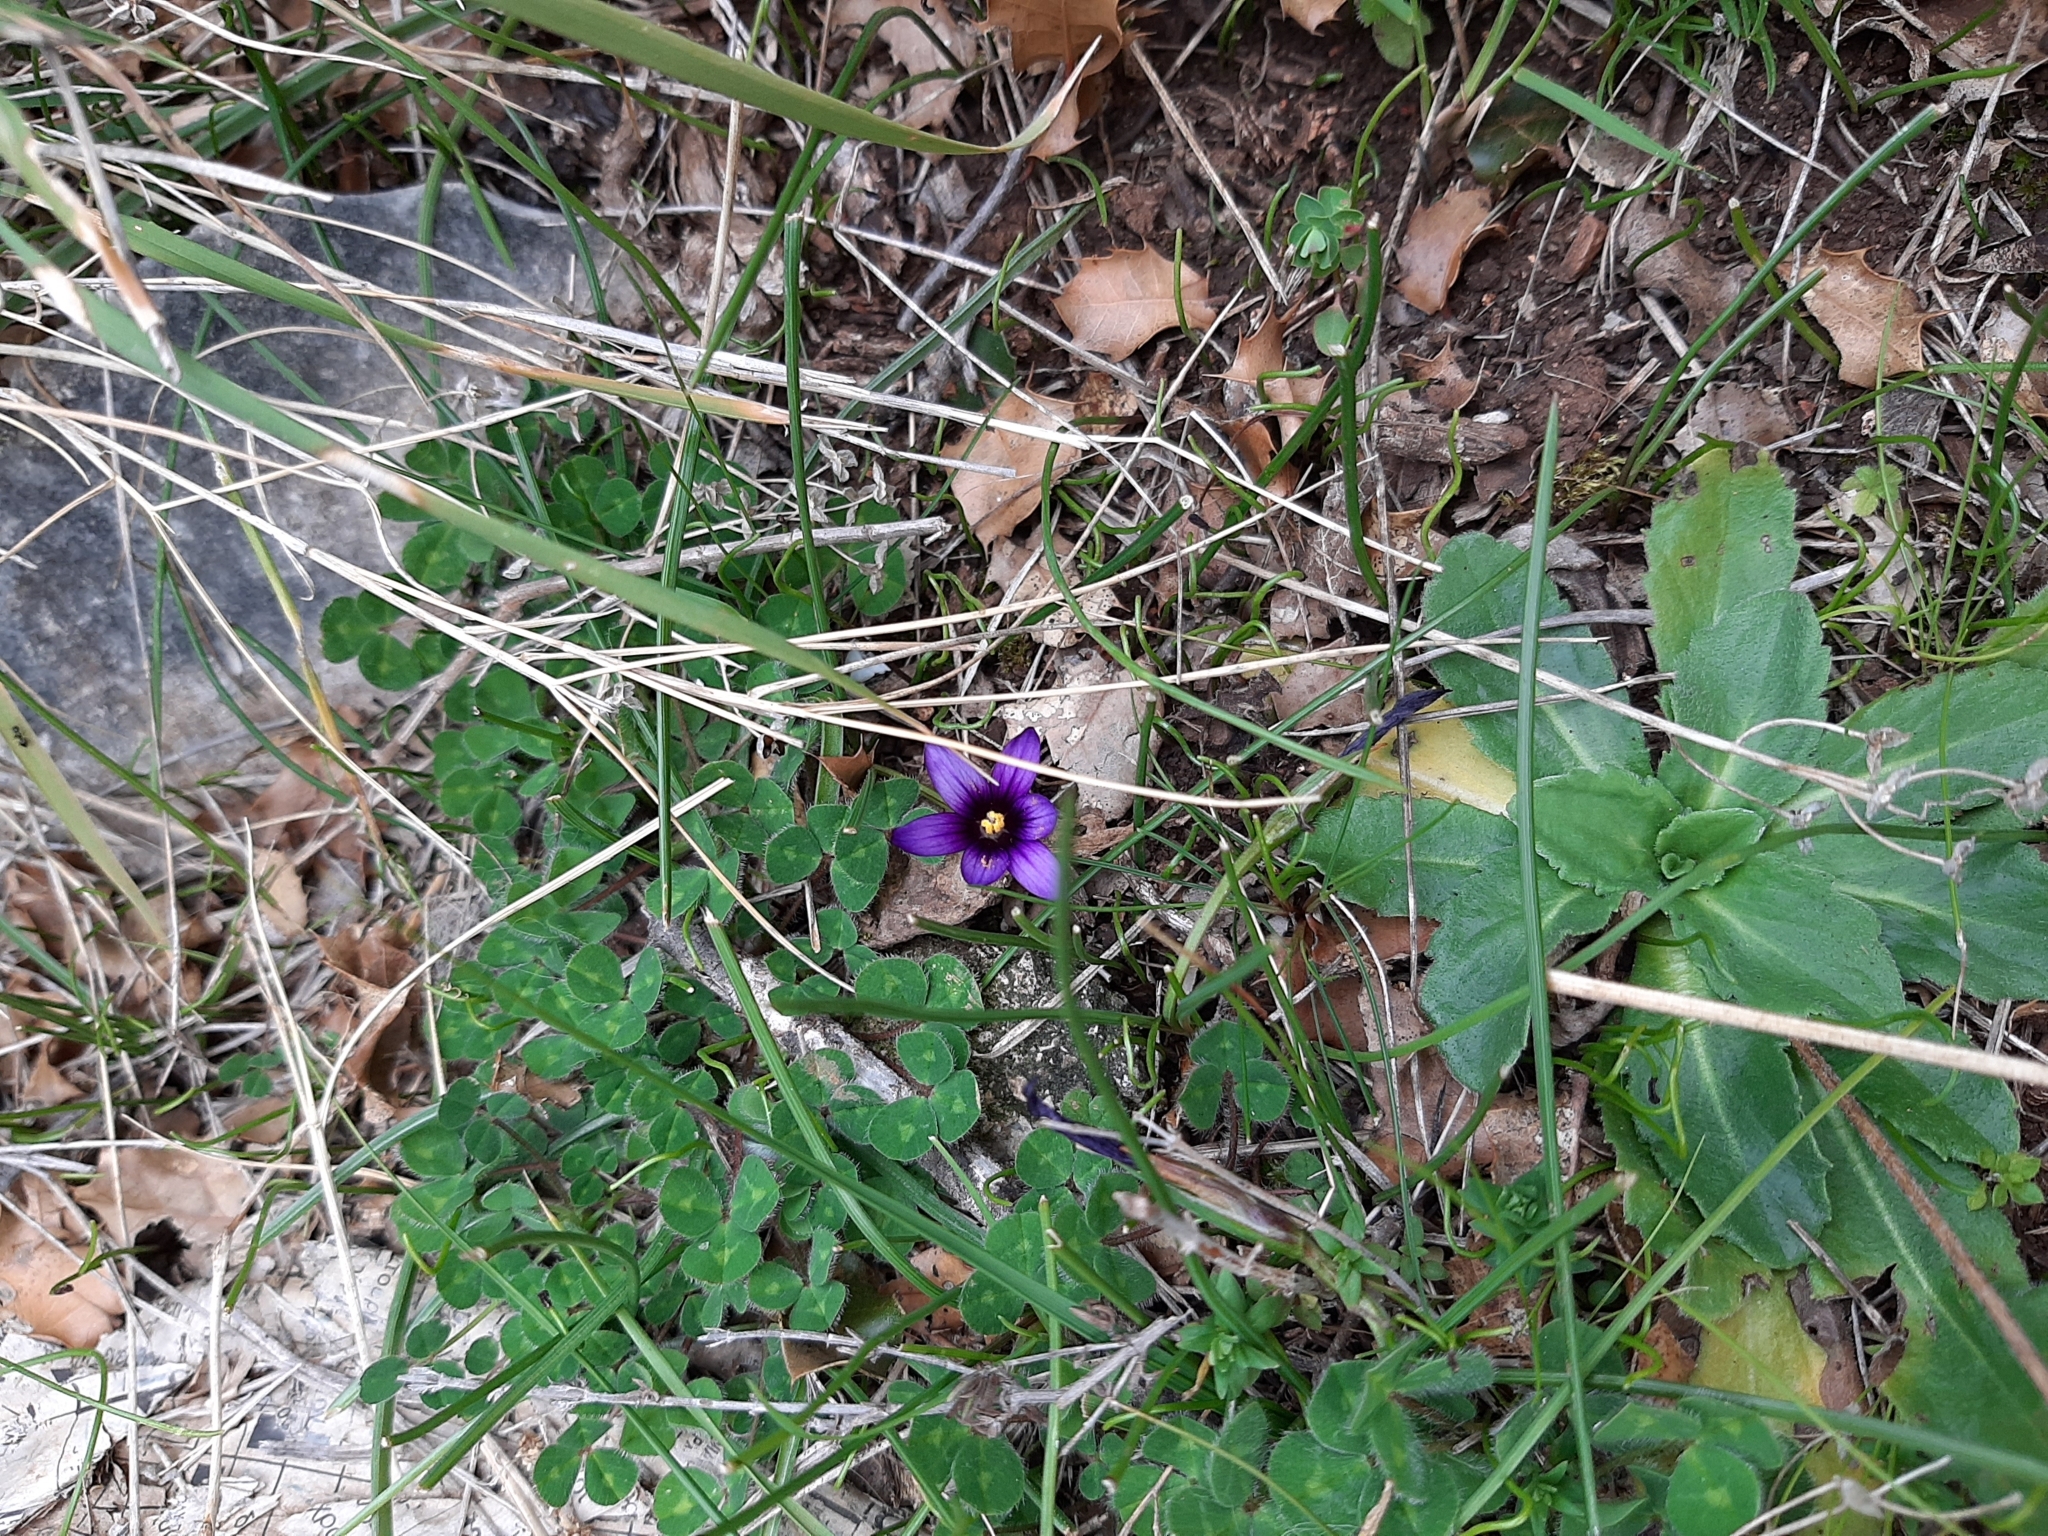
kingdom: Plantae
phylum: Tracheophyta
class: Liliopsida
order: Asparagales
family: Iridaceae
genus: Romulea
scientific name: Romulea linaresii
